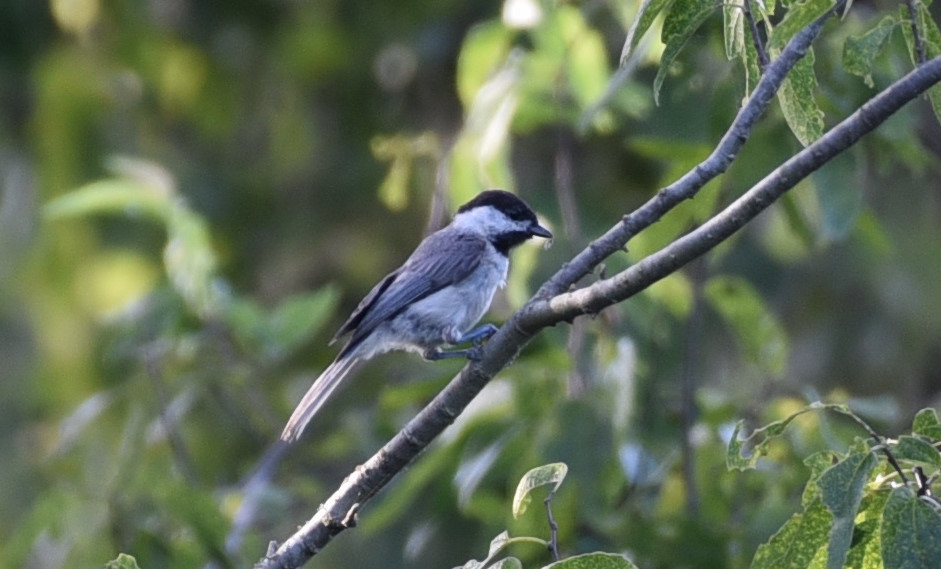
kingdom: Animalia
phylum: Chordata
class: Aves
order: Passeriformes
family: Paridae
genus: Poecile
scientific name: Poecile carolinensis
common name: Carolina chickadee
